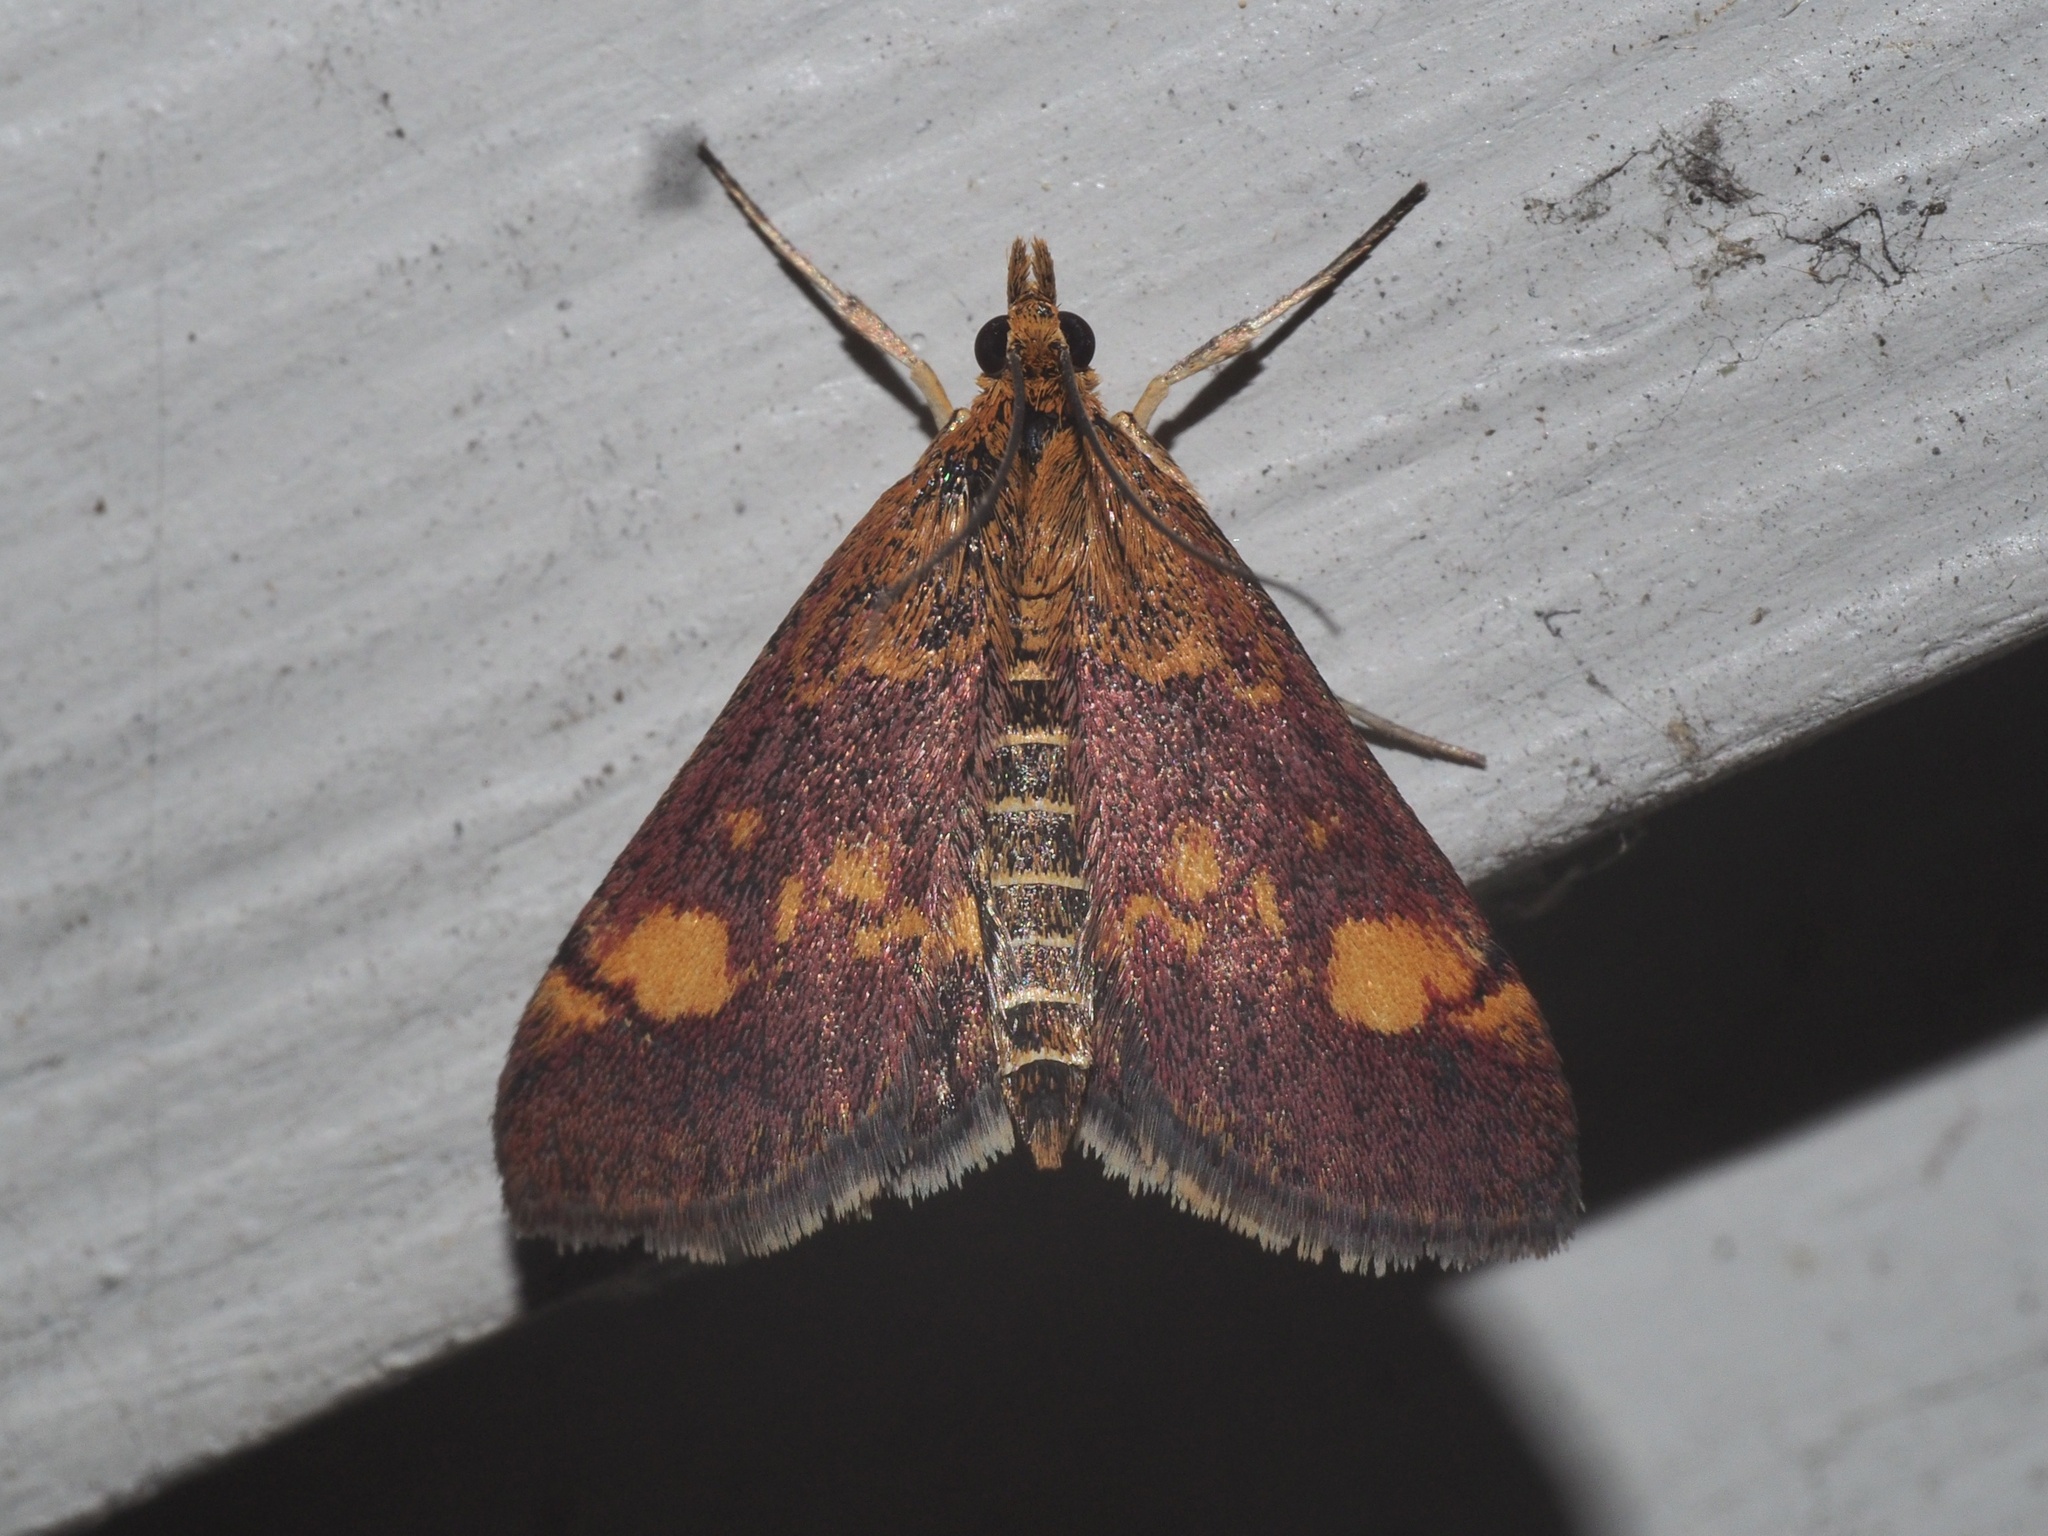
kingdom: Animalia
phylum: Arthropoda
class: Insecta
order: Lepidoptera
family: Crambidae
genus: Pyrausta
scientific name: Pyrausta aurata
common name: Small purple & gold
